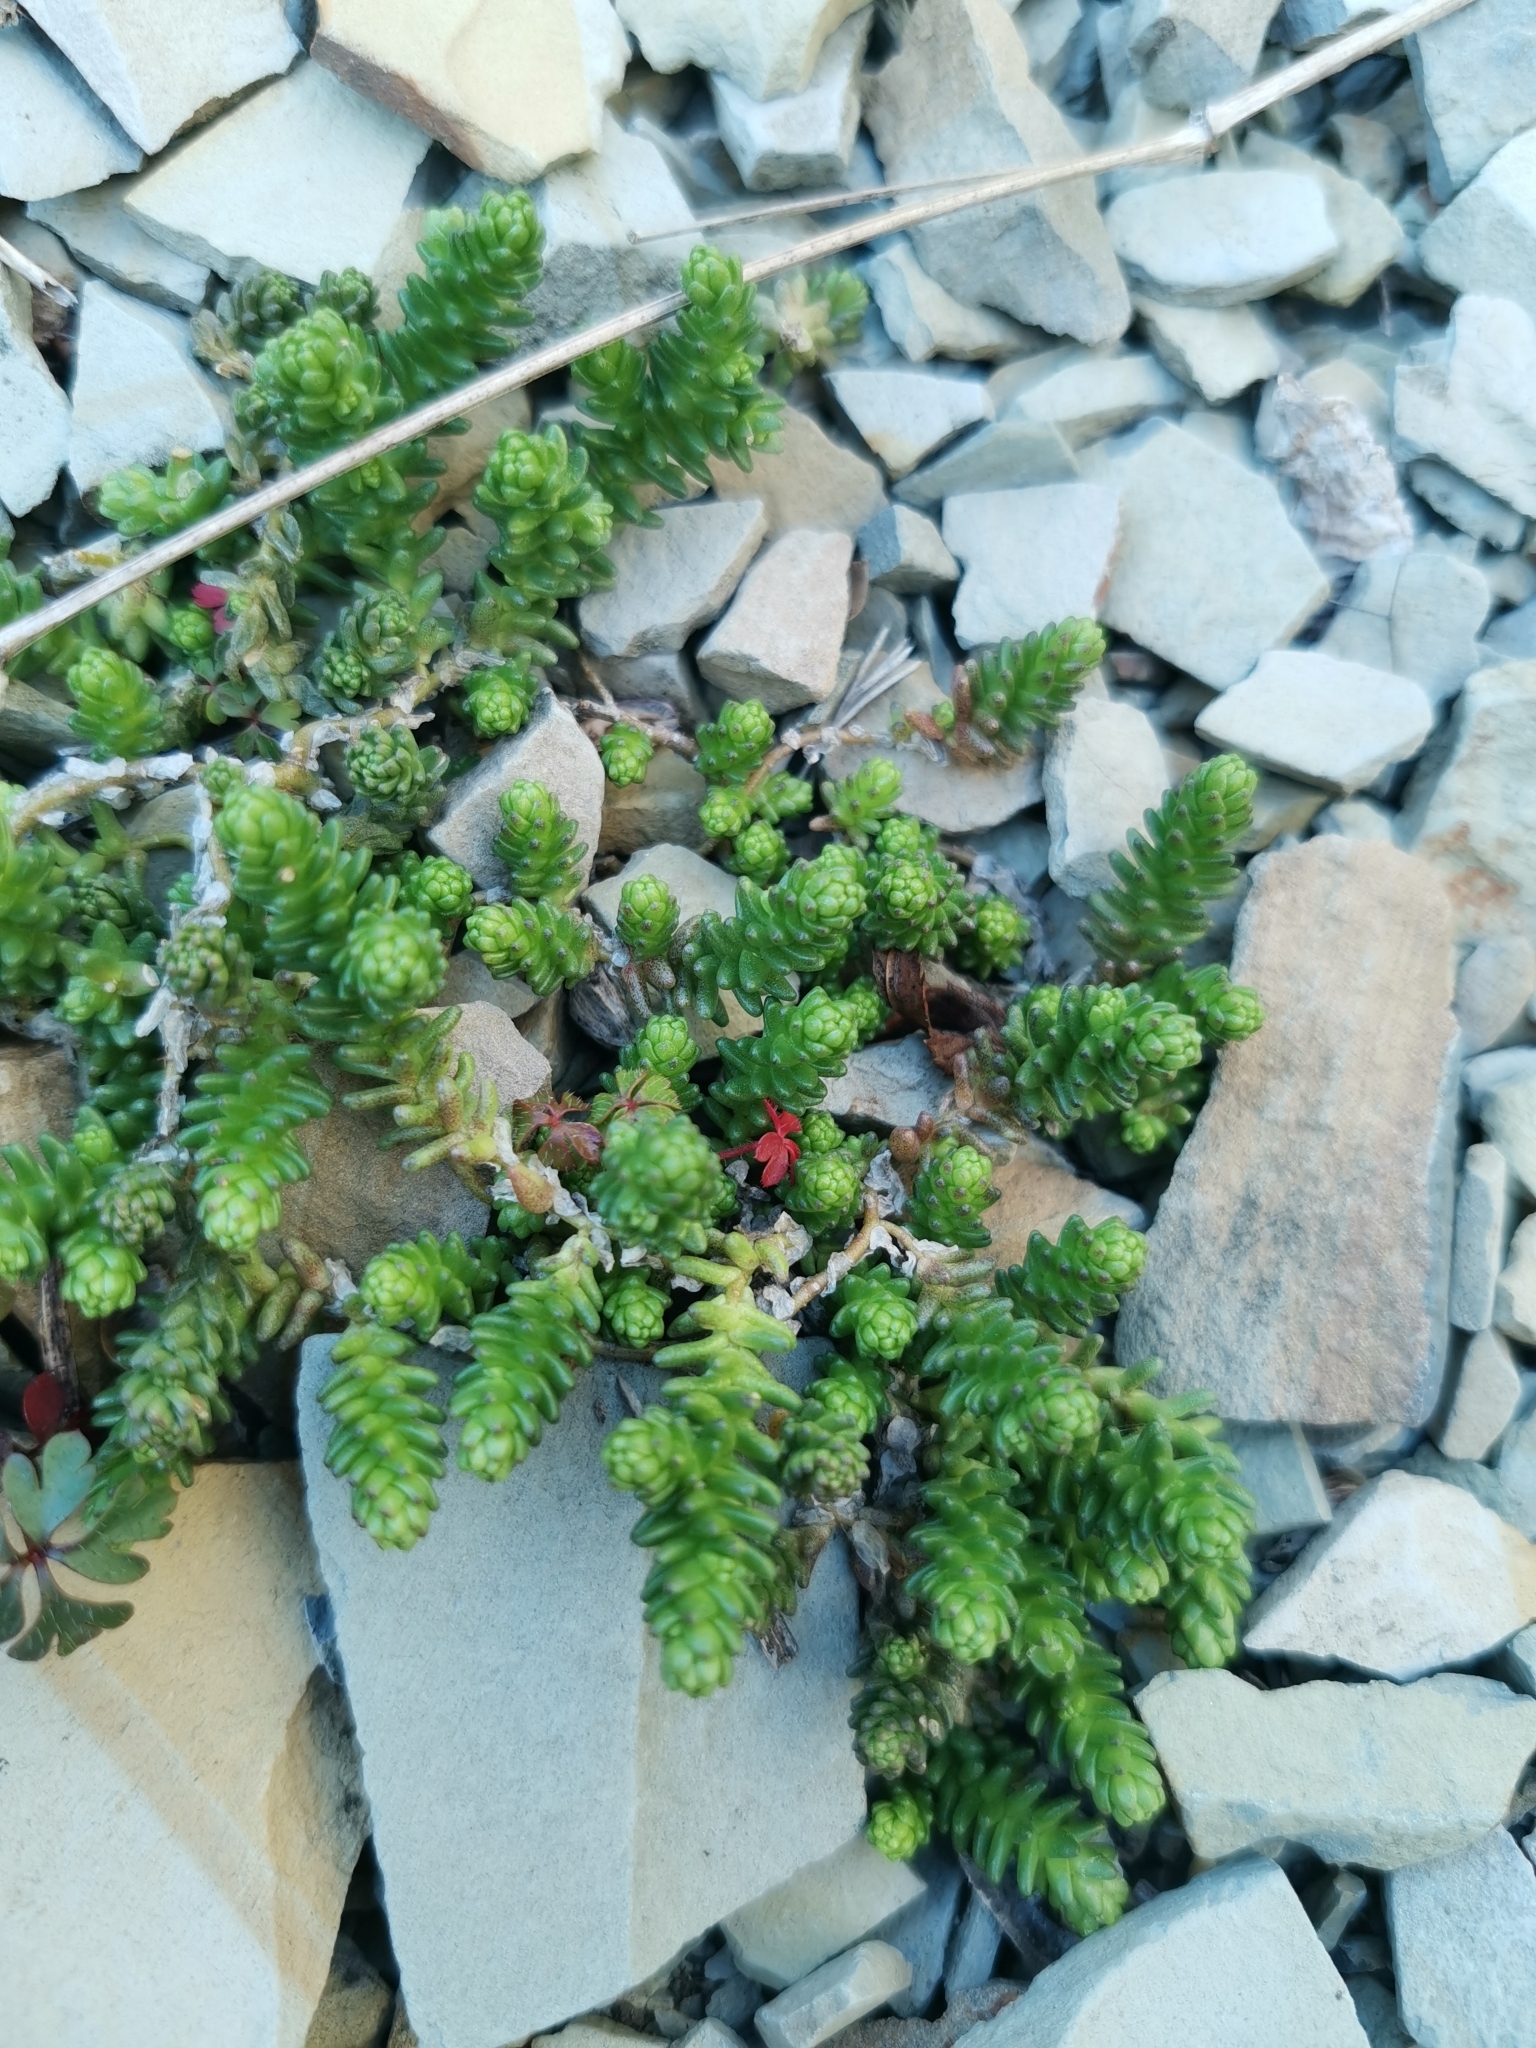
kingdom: Plantae
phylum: Tracheophyta
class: Magnoliopsida
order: Saxifragales
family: Crassulaceae
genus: Sedum
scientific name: Sedum acre
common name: Biting stonecrop
